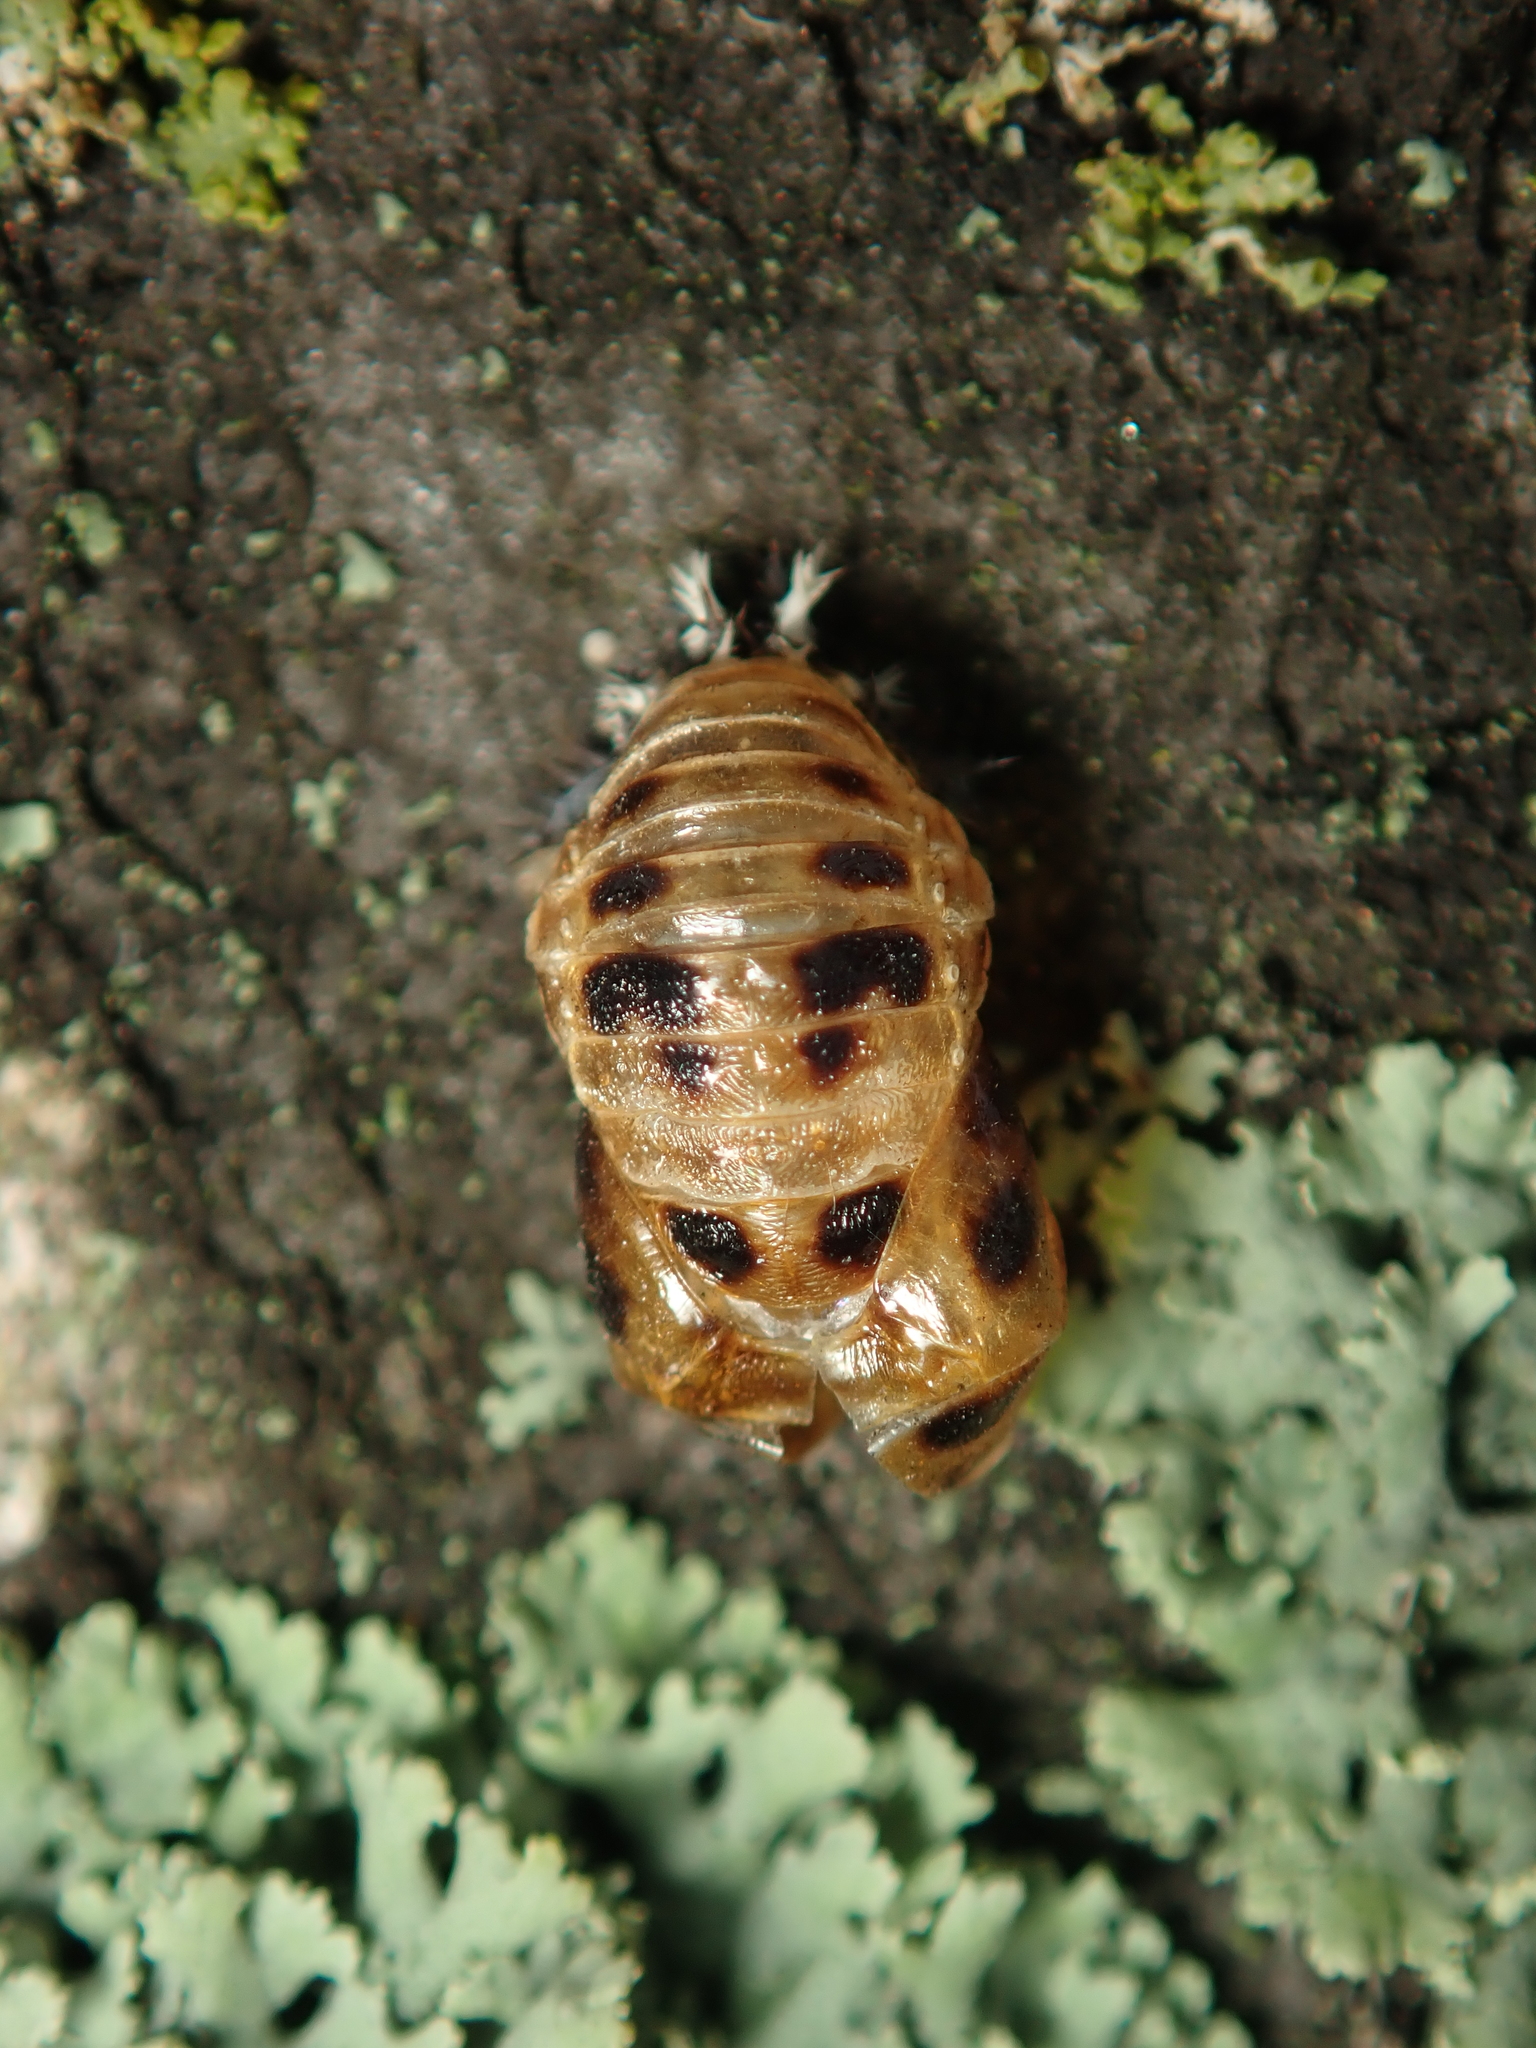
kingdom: Animalia
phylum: Arthropoda
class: Insecta
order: Coleoptera
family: Coccinellidae
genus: Harmonia
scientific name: Harmonia axyridis
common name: Harlequin ladybird
